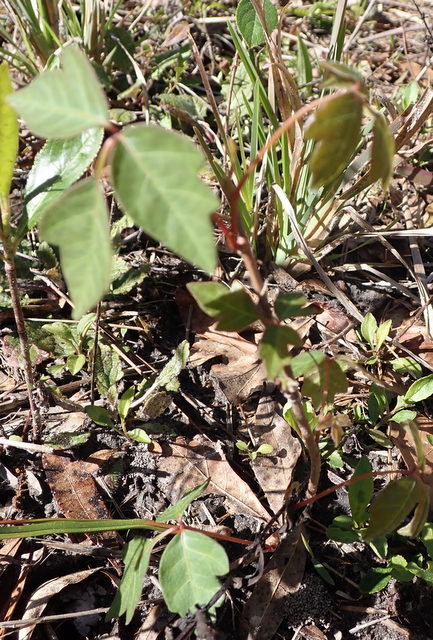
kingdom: Plantae
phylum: Tracheophyta
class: Magnoliopsida
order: Sapindales
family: Anacardiaceae
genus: Toxicodendron
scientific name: Toxicodendron radicans
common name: Poison ivy
